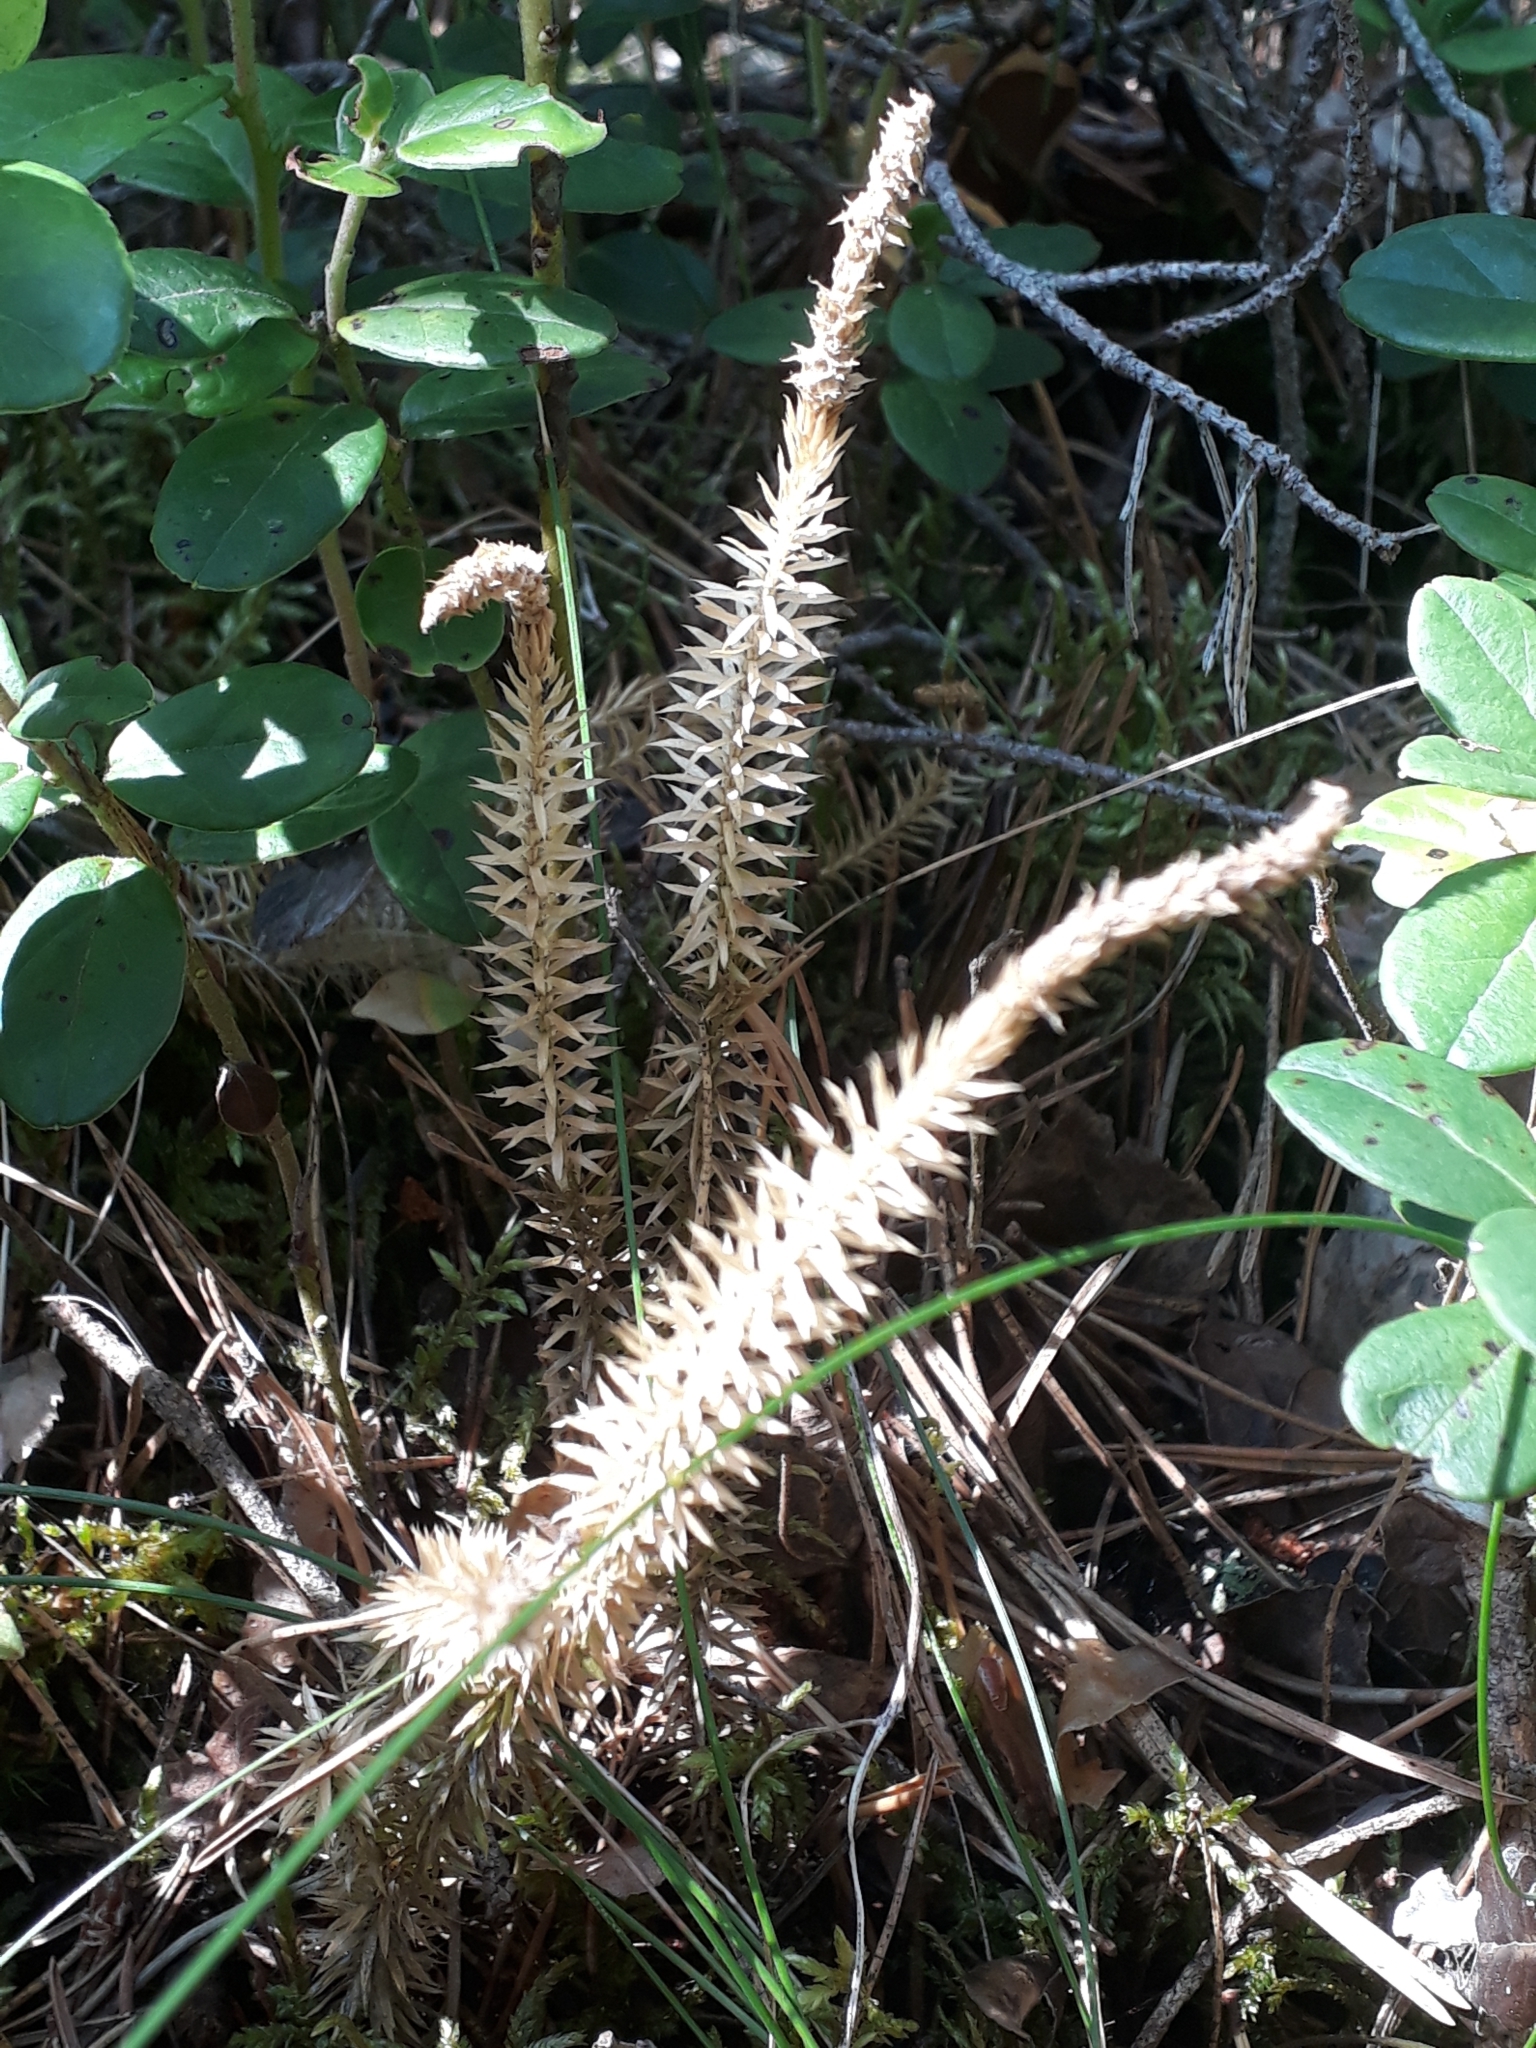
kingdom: Plantae
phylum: Tracheophyta
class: Lycopodiopsida
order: Lycopodiales
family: Lycopodiaceae
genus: Spinulum
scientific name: Spinulum annotinum
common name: Interrupted club-moss
